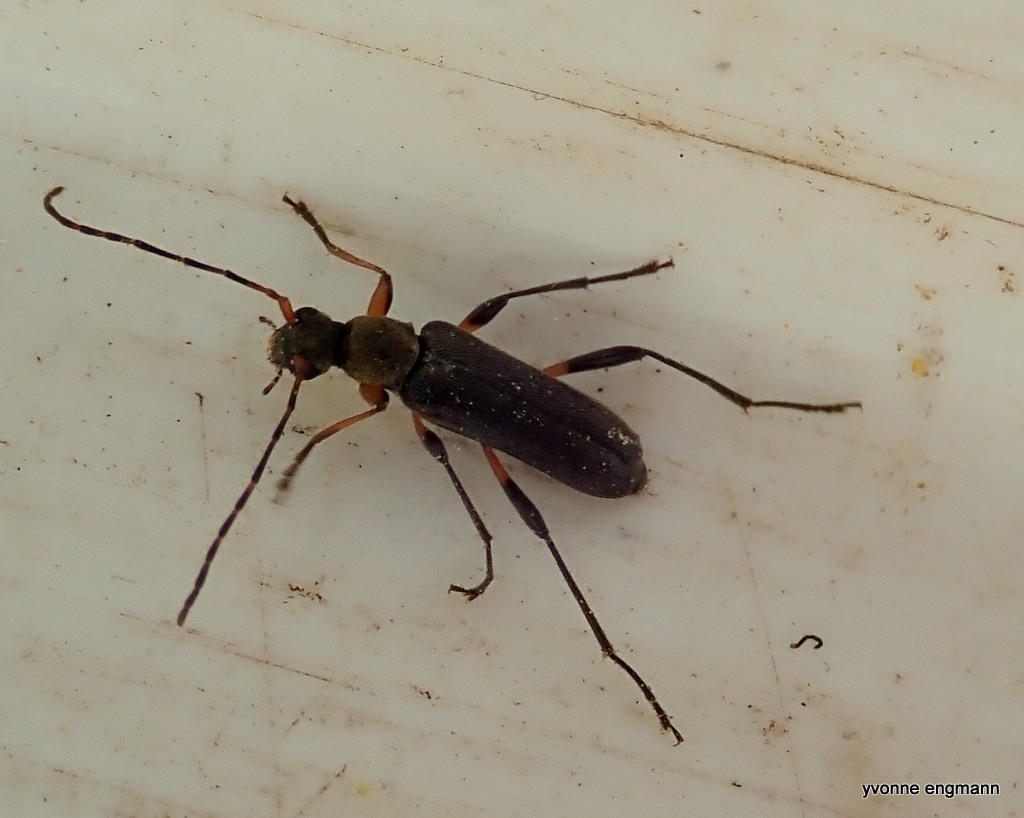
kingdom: Animalia
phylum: Arthropoda
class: Insecta
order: Coleoptera
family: Cerambycidae
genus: Grammoptera
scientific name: Grammoptera ruficornis
